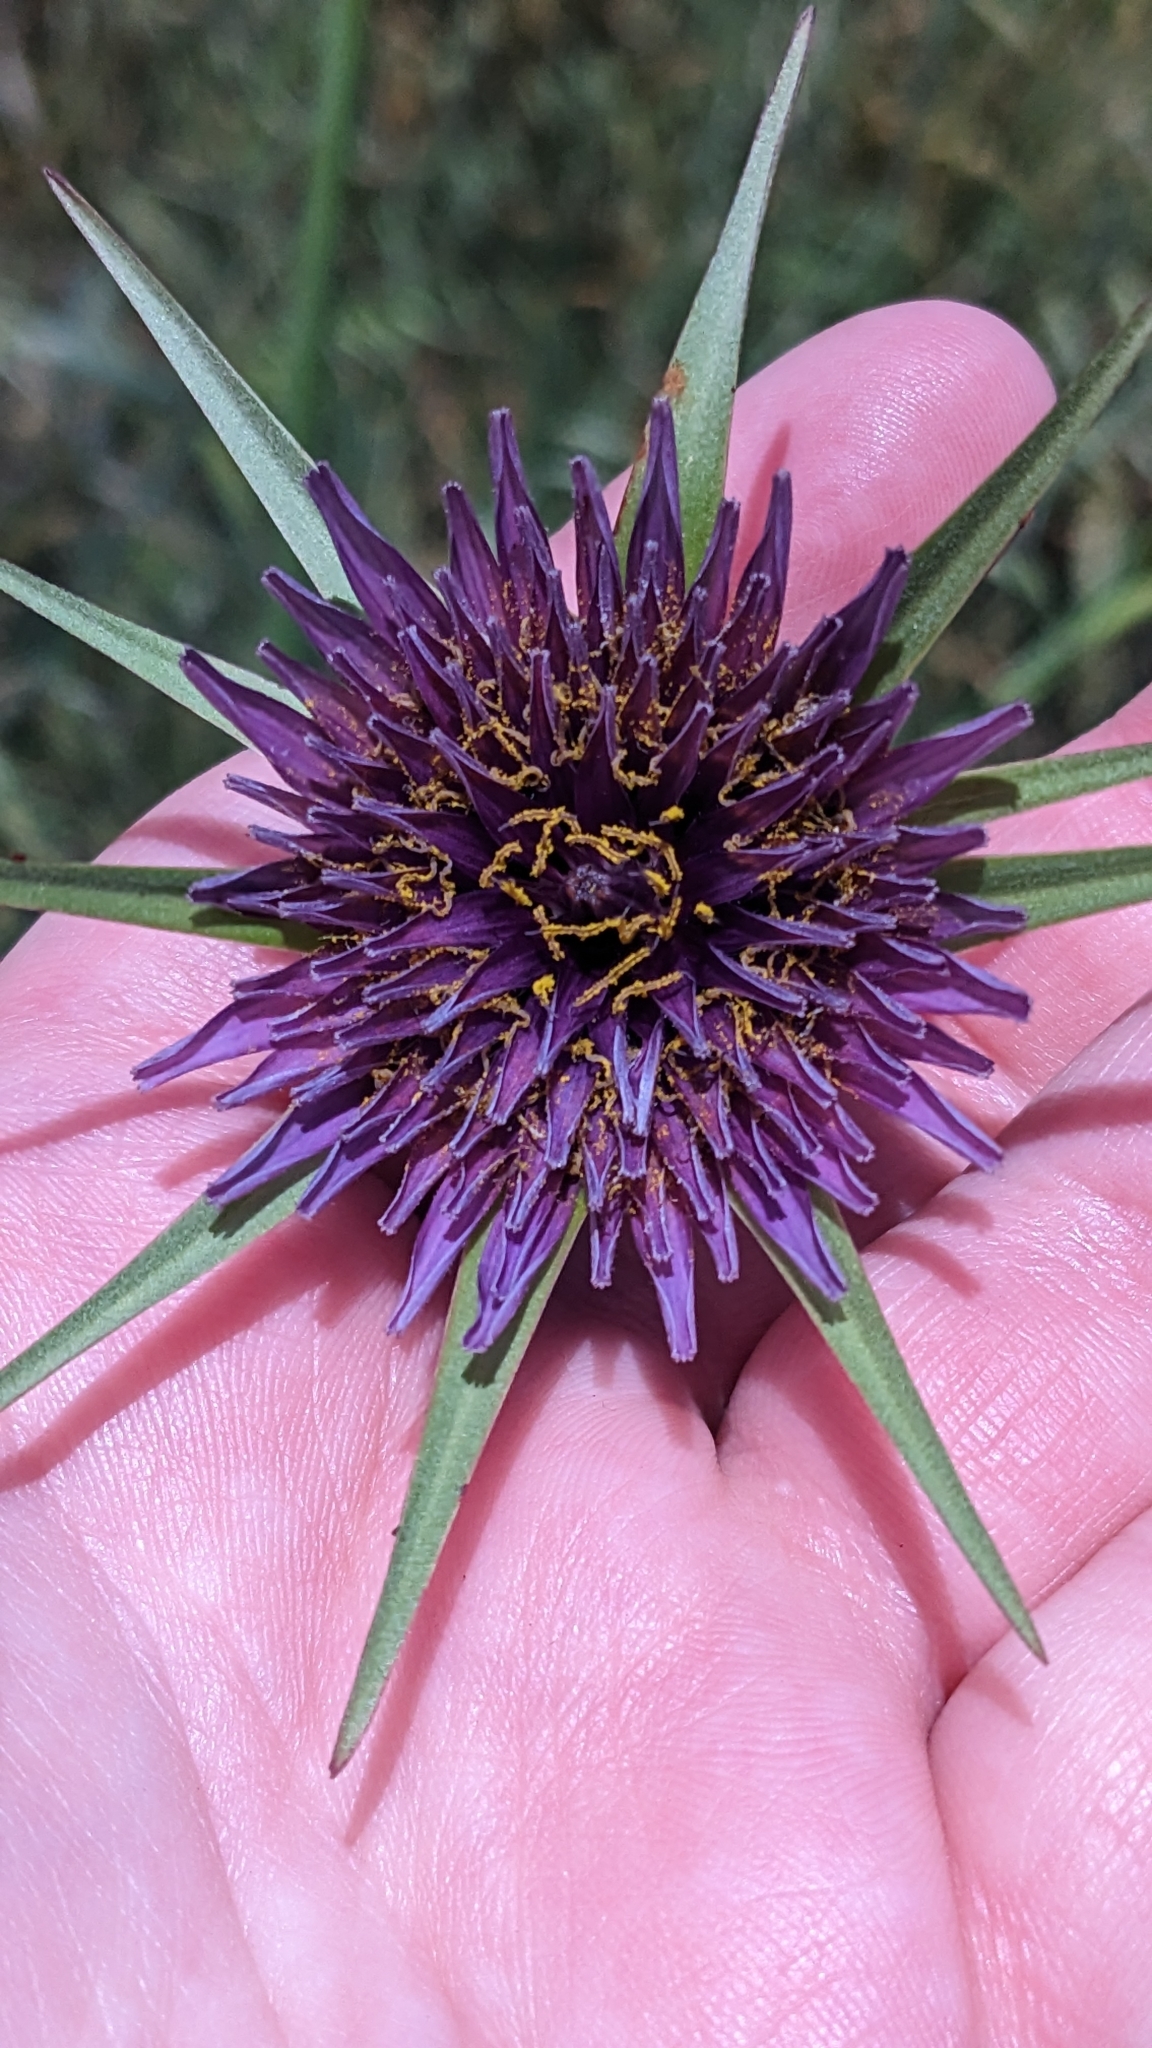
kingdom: Plantae
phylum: Tracheophyta
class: Magnoliopsida
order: Asterales
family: Asteraceae
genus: Tragopogon
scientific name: Tragopogon porrifolius
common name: Salsify
